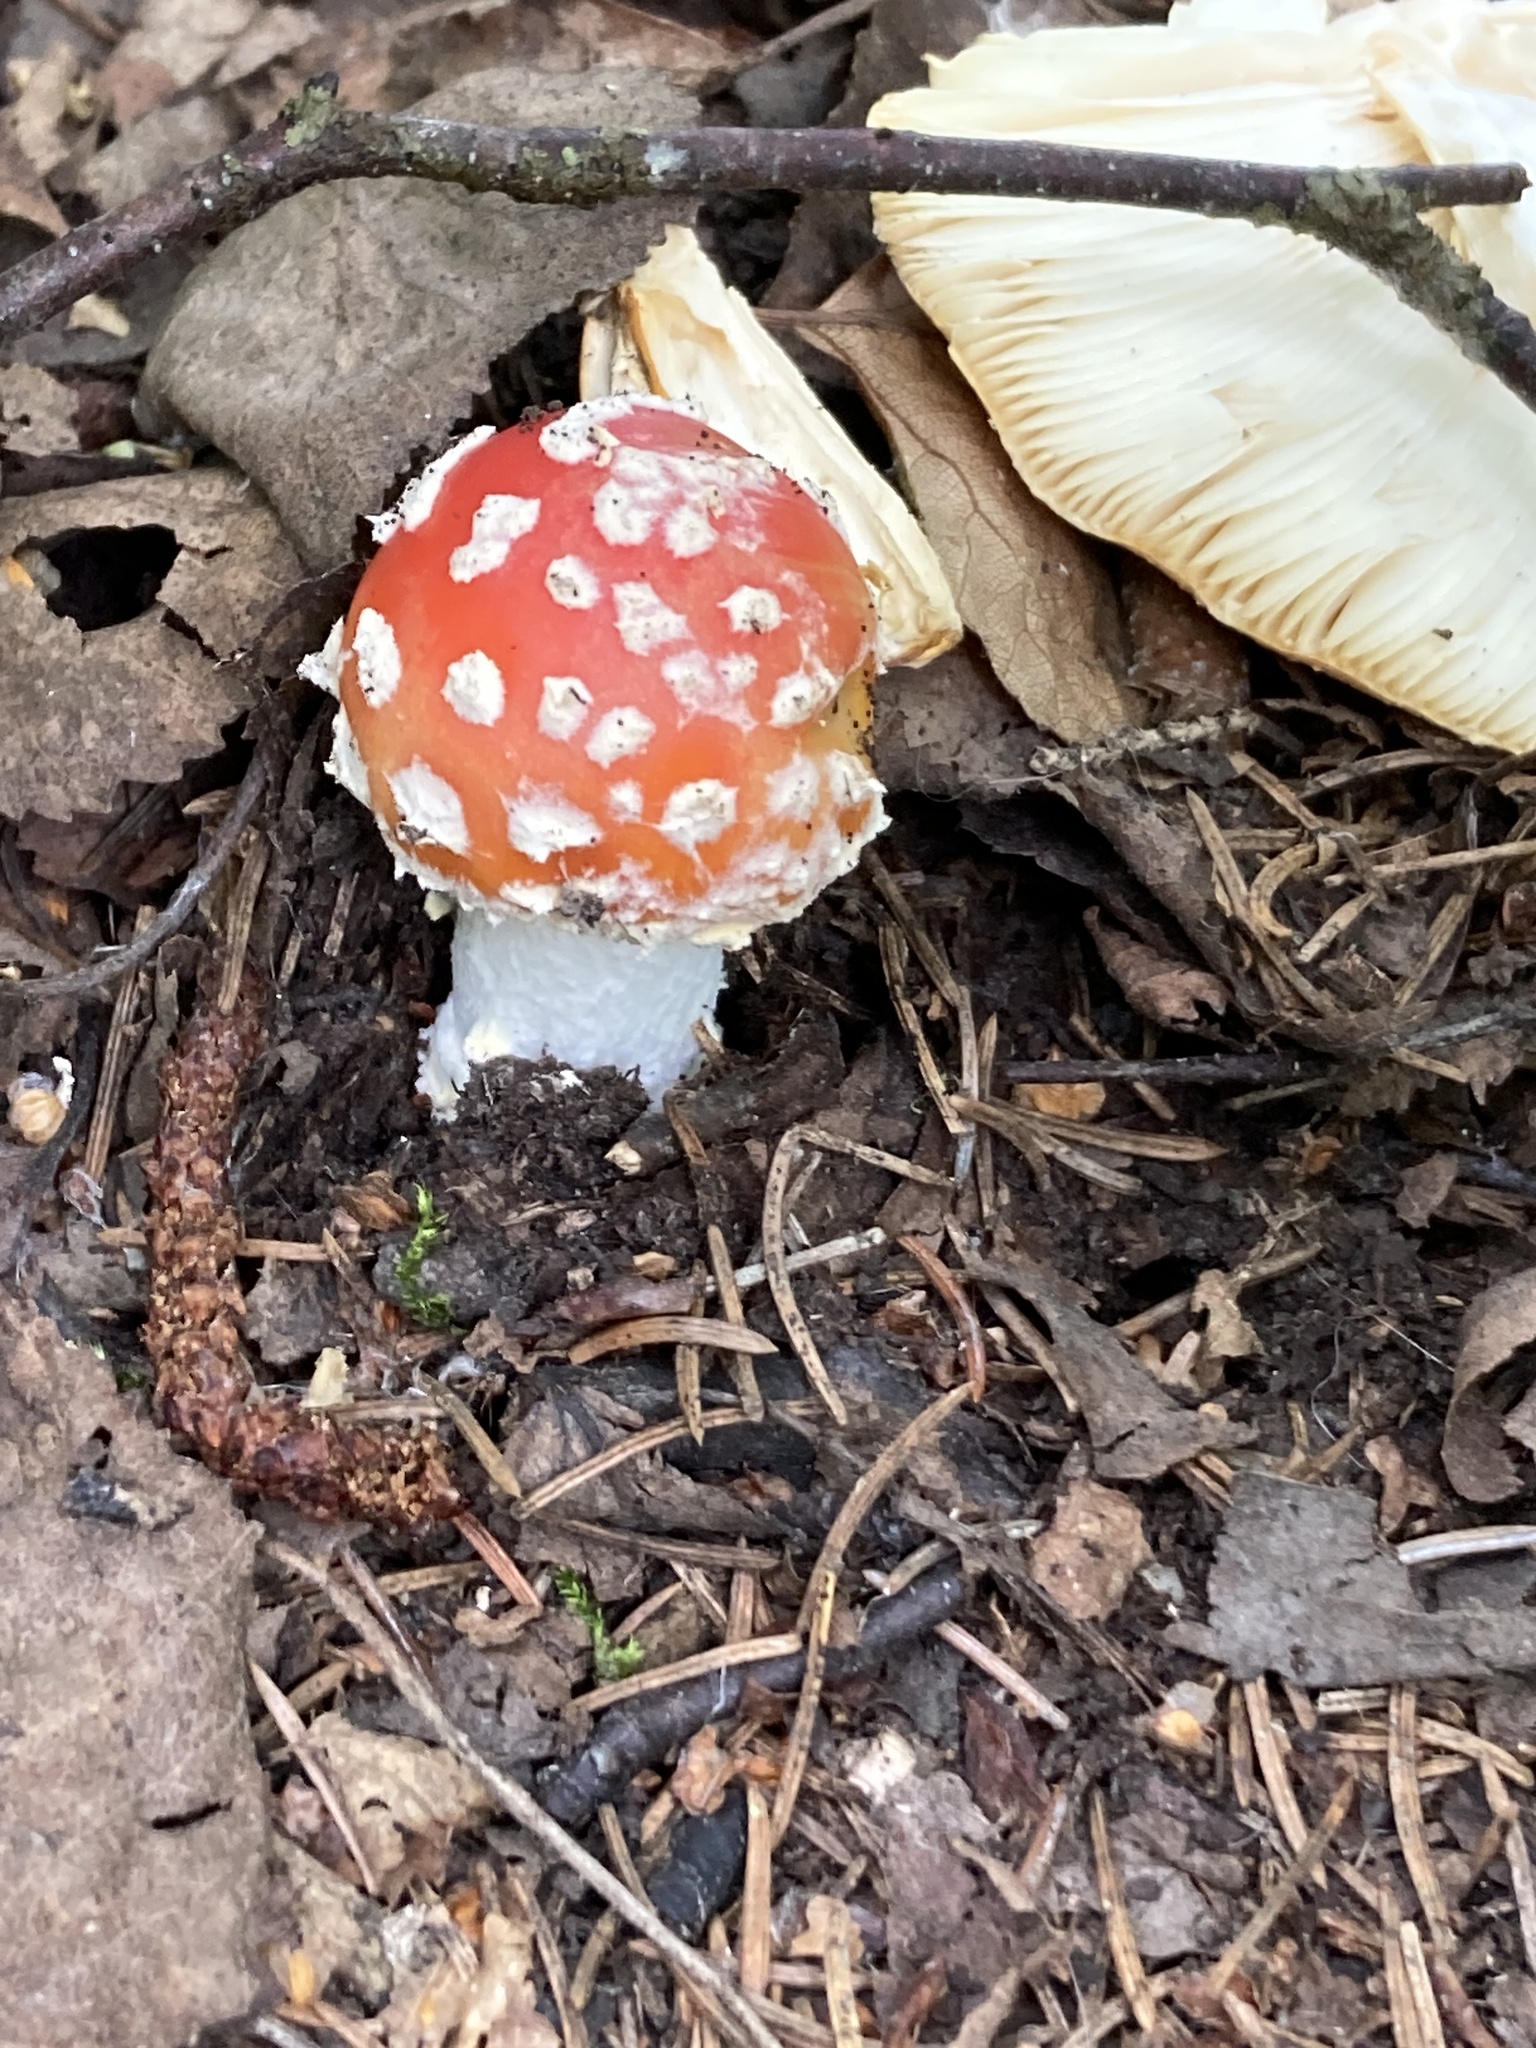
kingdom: Fungi
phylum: Basidiomycota
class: Agaricomycetes
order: Agaricales
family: Amanitaceae
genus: Amanita
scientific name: Amanita muscaria
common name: Fly agaric
